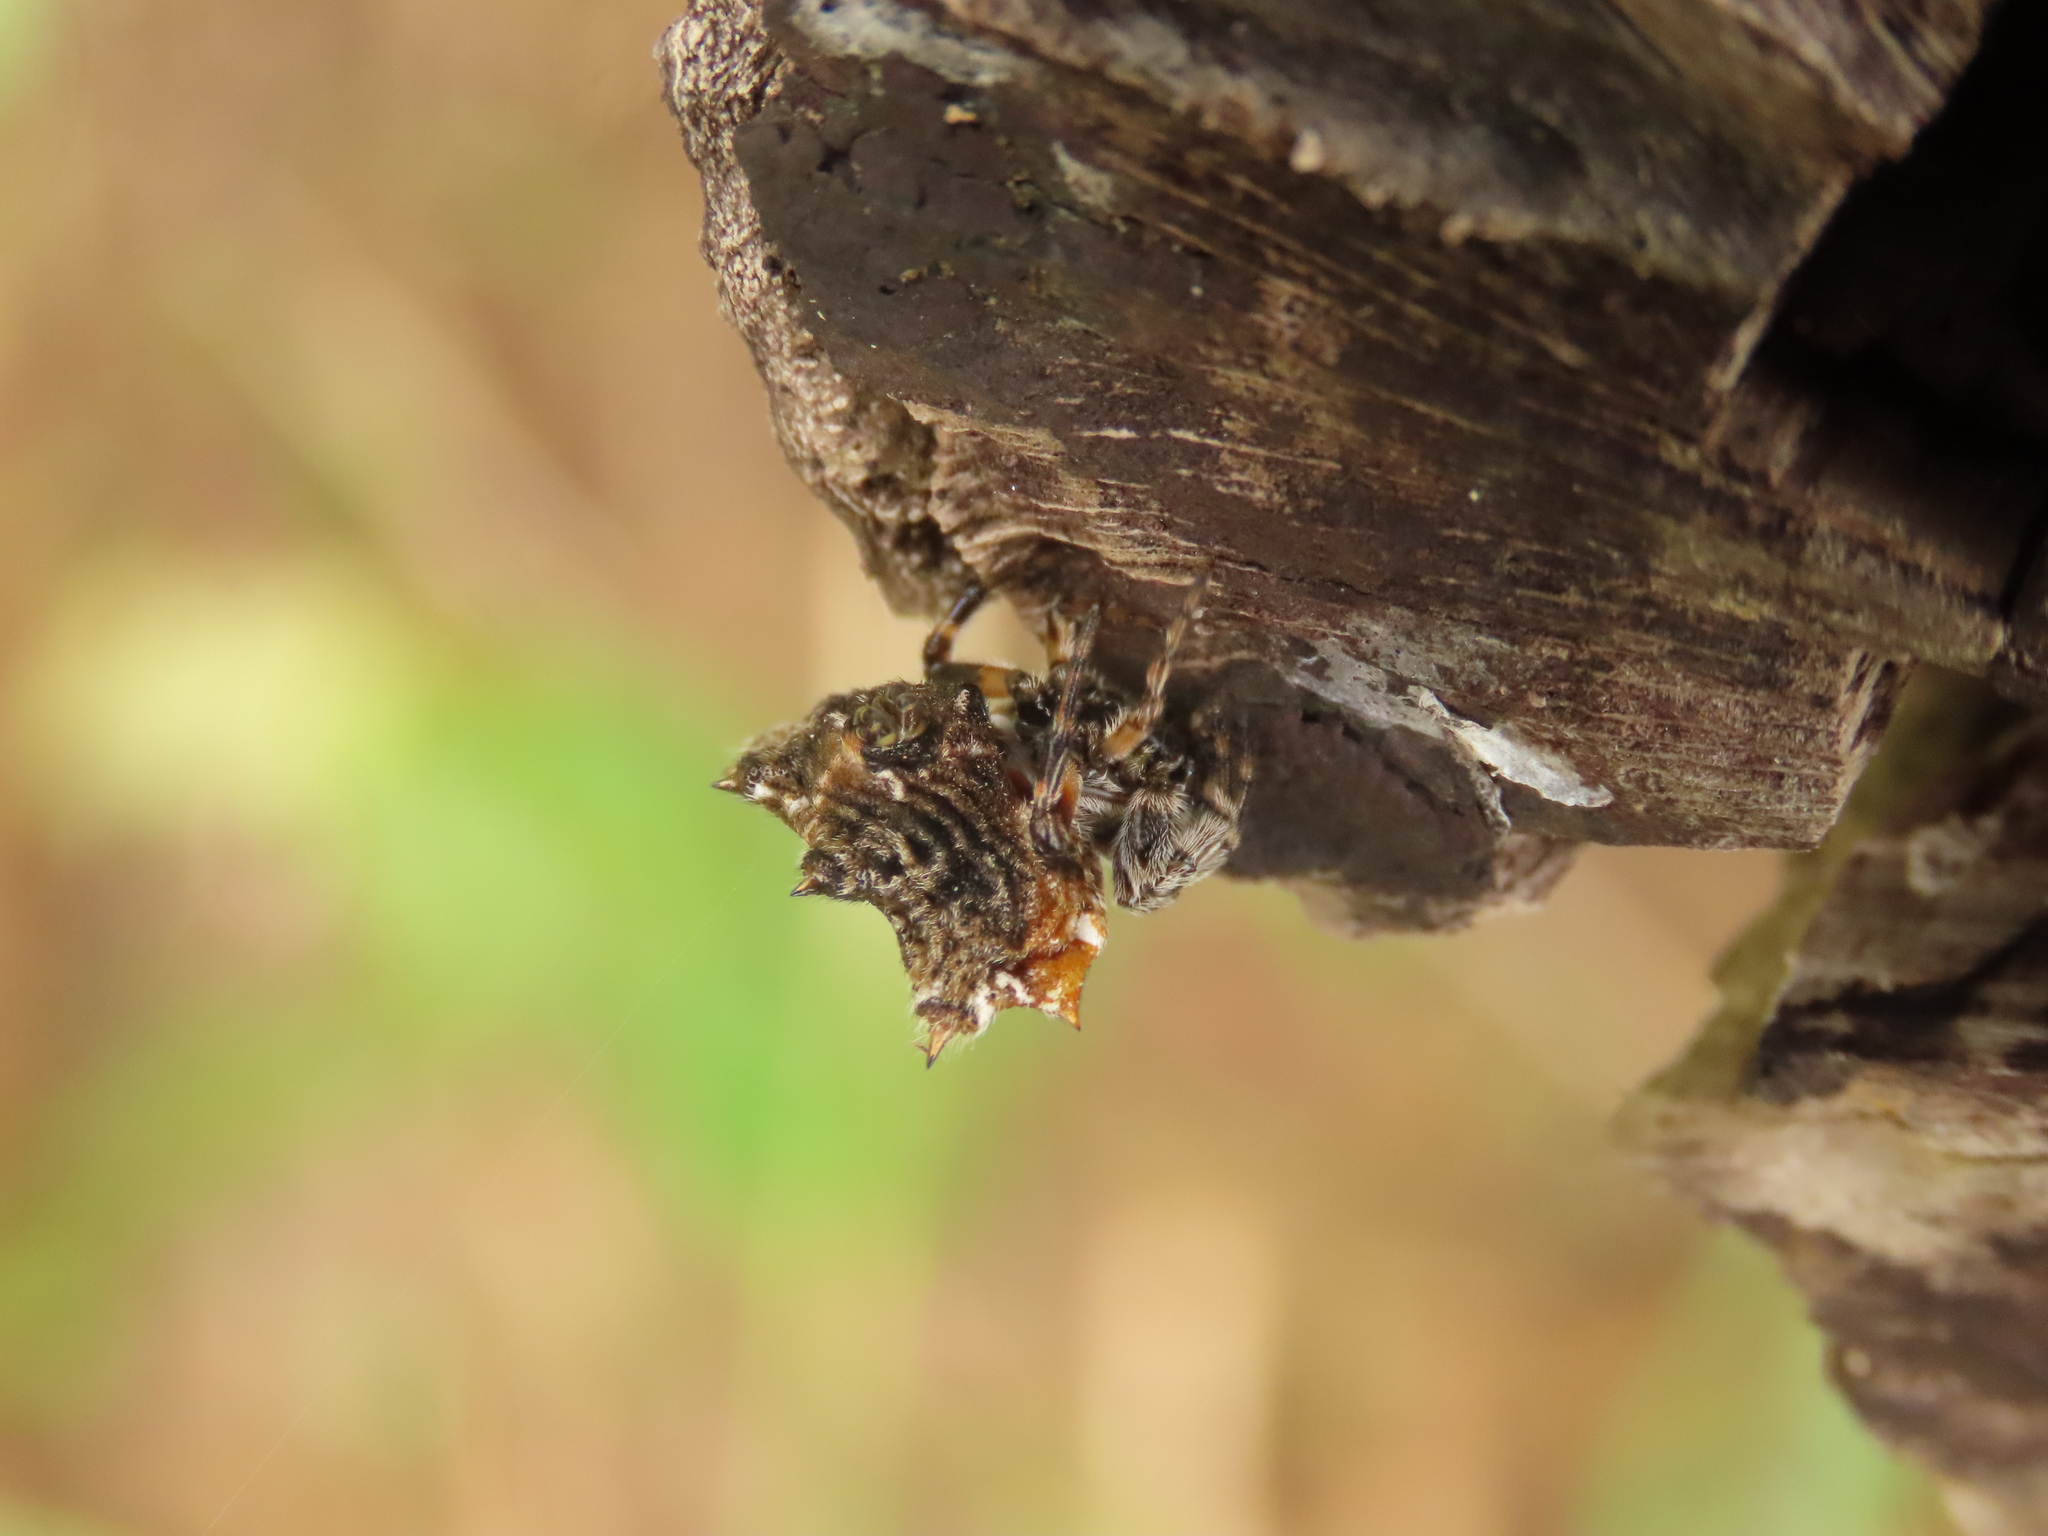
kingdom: Animalia
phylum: Arthropoda
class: Arachnida
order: Araneae
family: Araneidae
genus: Thelacantha
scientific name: Thelacantha brevispina
